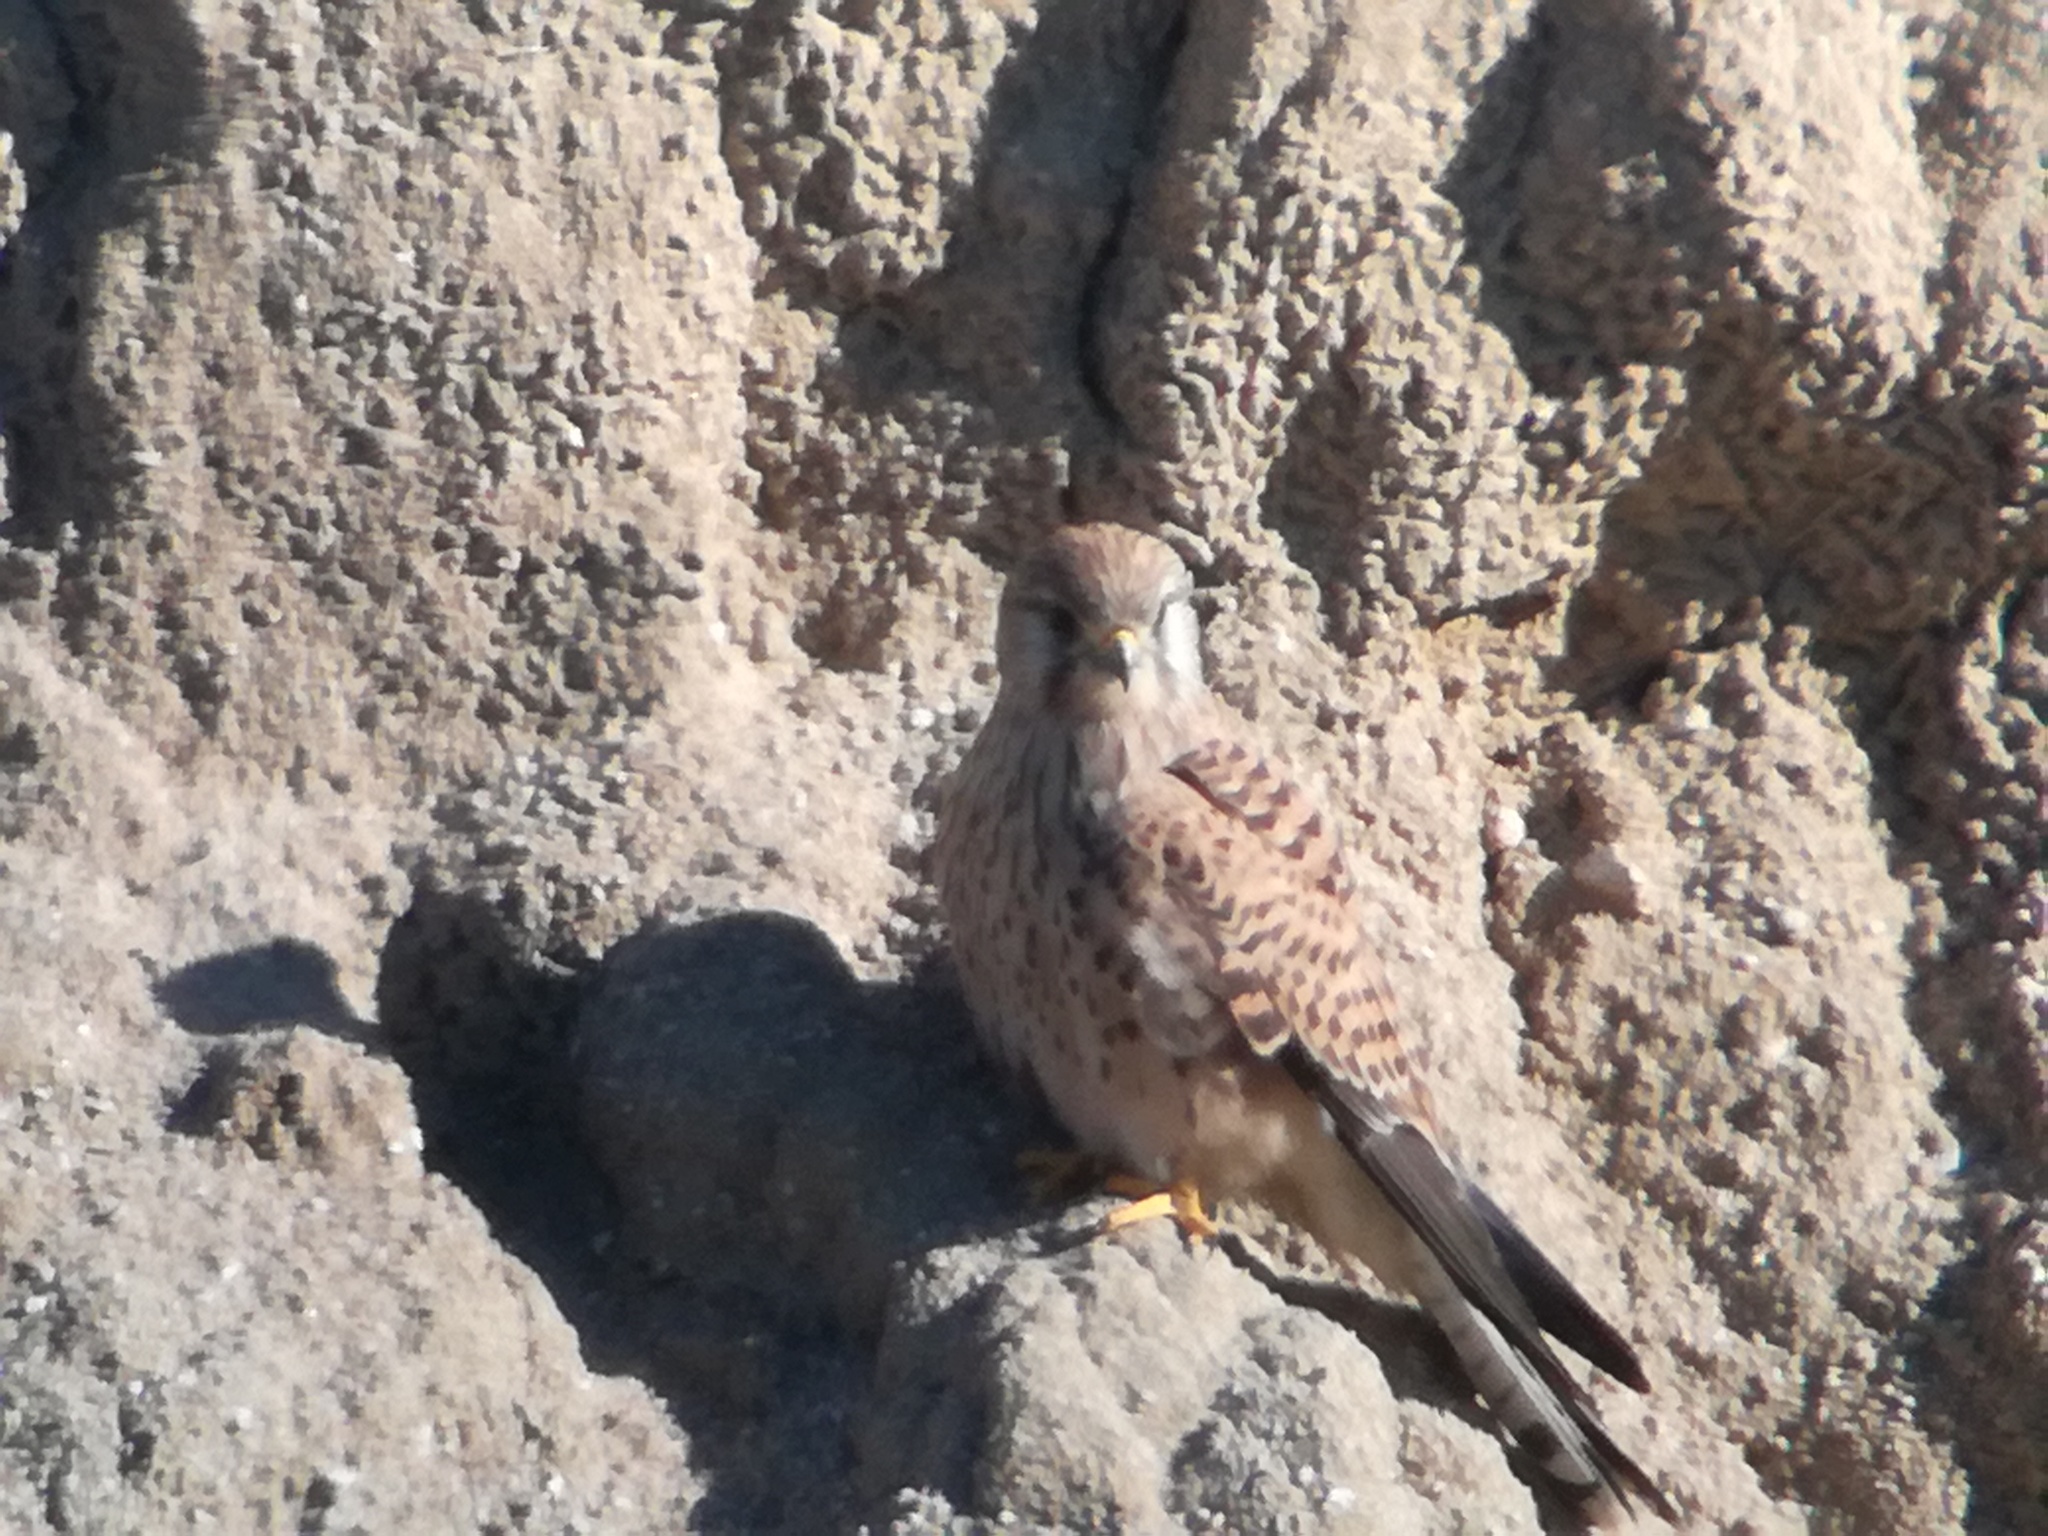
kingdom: Animalia
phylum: Chordata
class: Aves
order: Falconiformes
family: Falconidae
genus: Falco
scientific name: Falco tinnunculus
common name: Common kestrel
